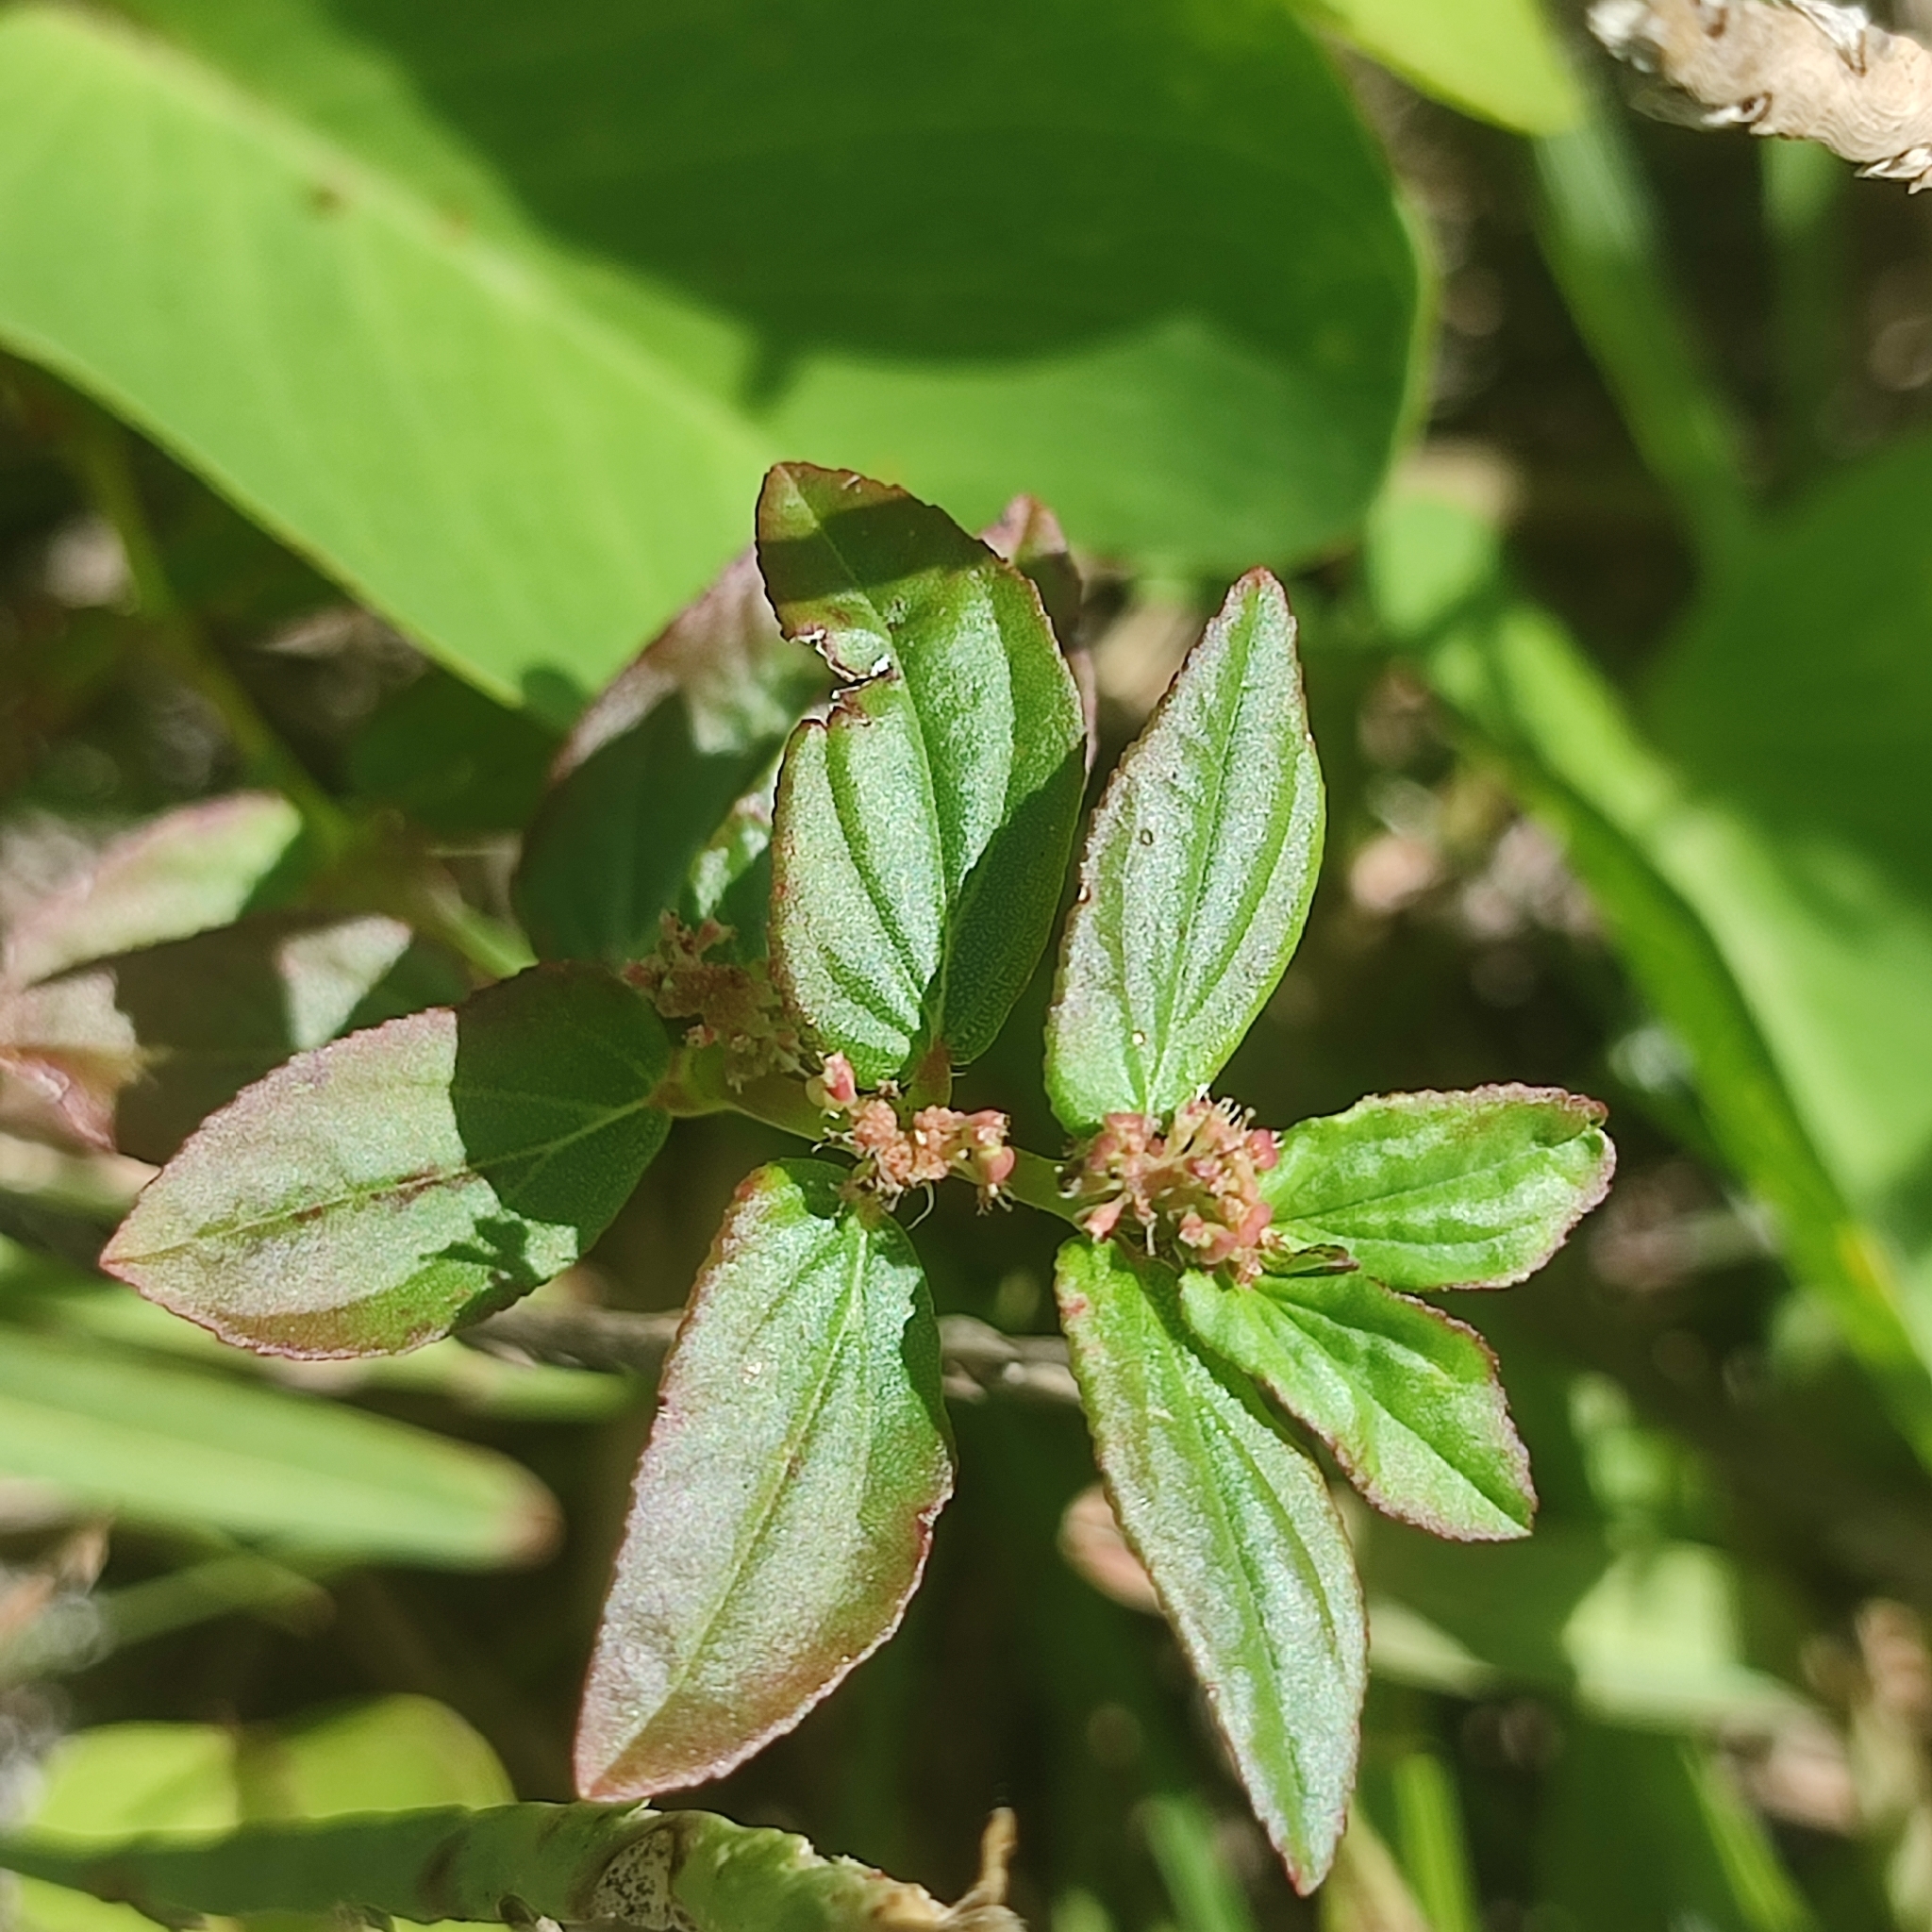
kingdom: Plantae
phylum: Tracheophyta
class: Magnoliopsida
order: Malpighiales
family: Euphorbiaceae
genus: Euphorbia
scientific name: Euphorbia hirta
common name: Pillpod sandmat
